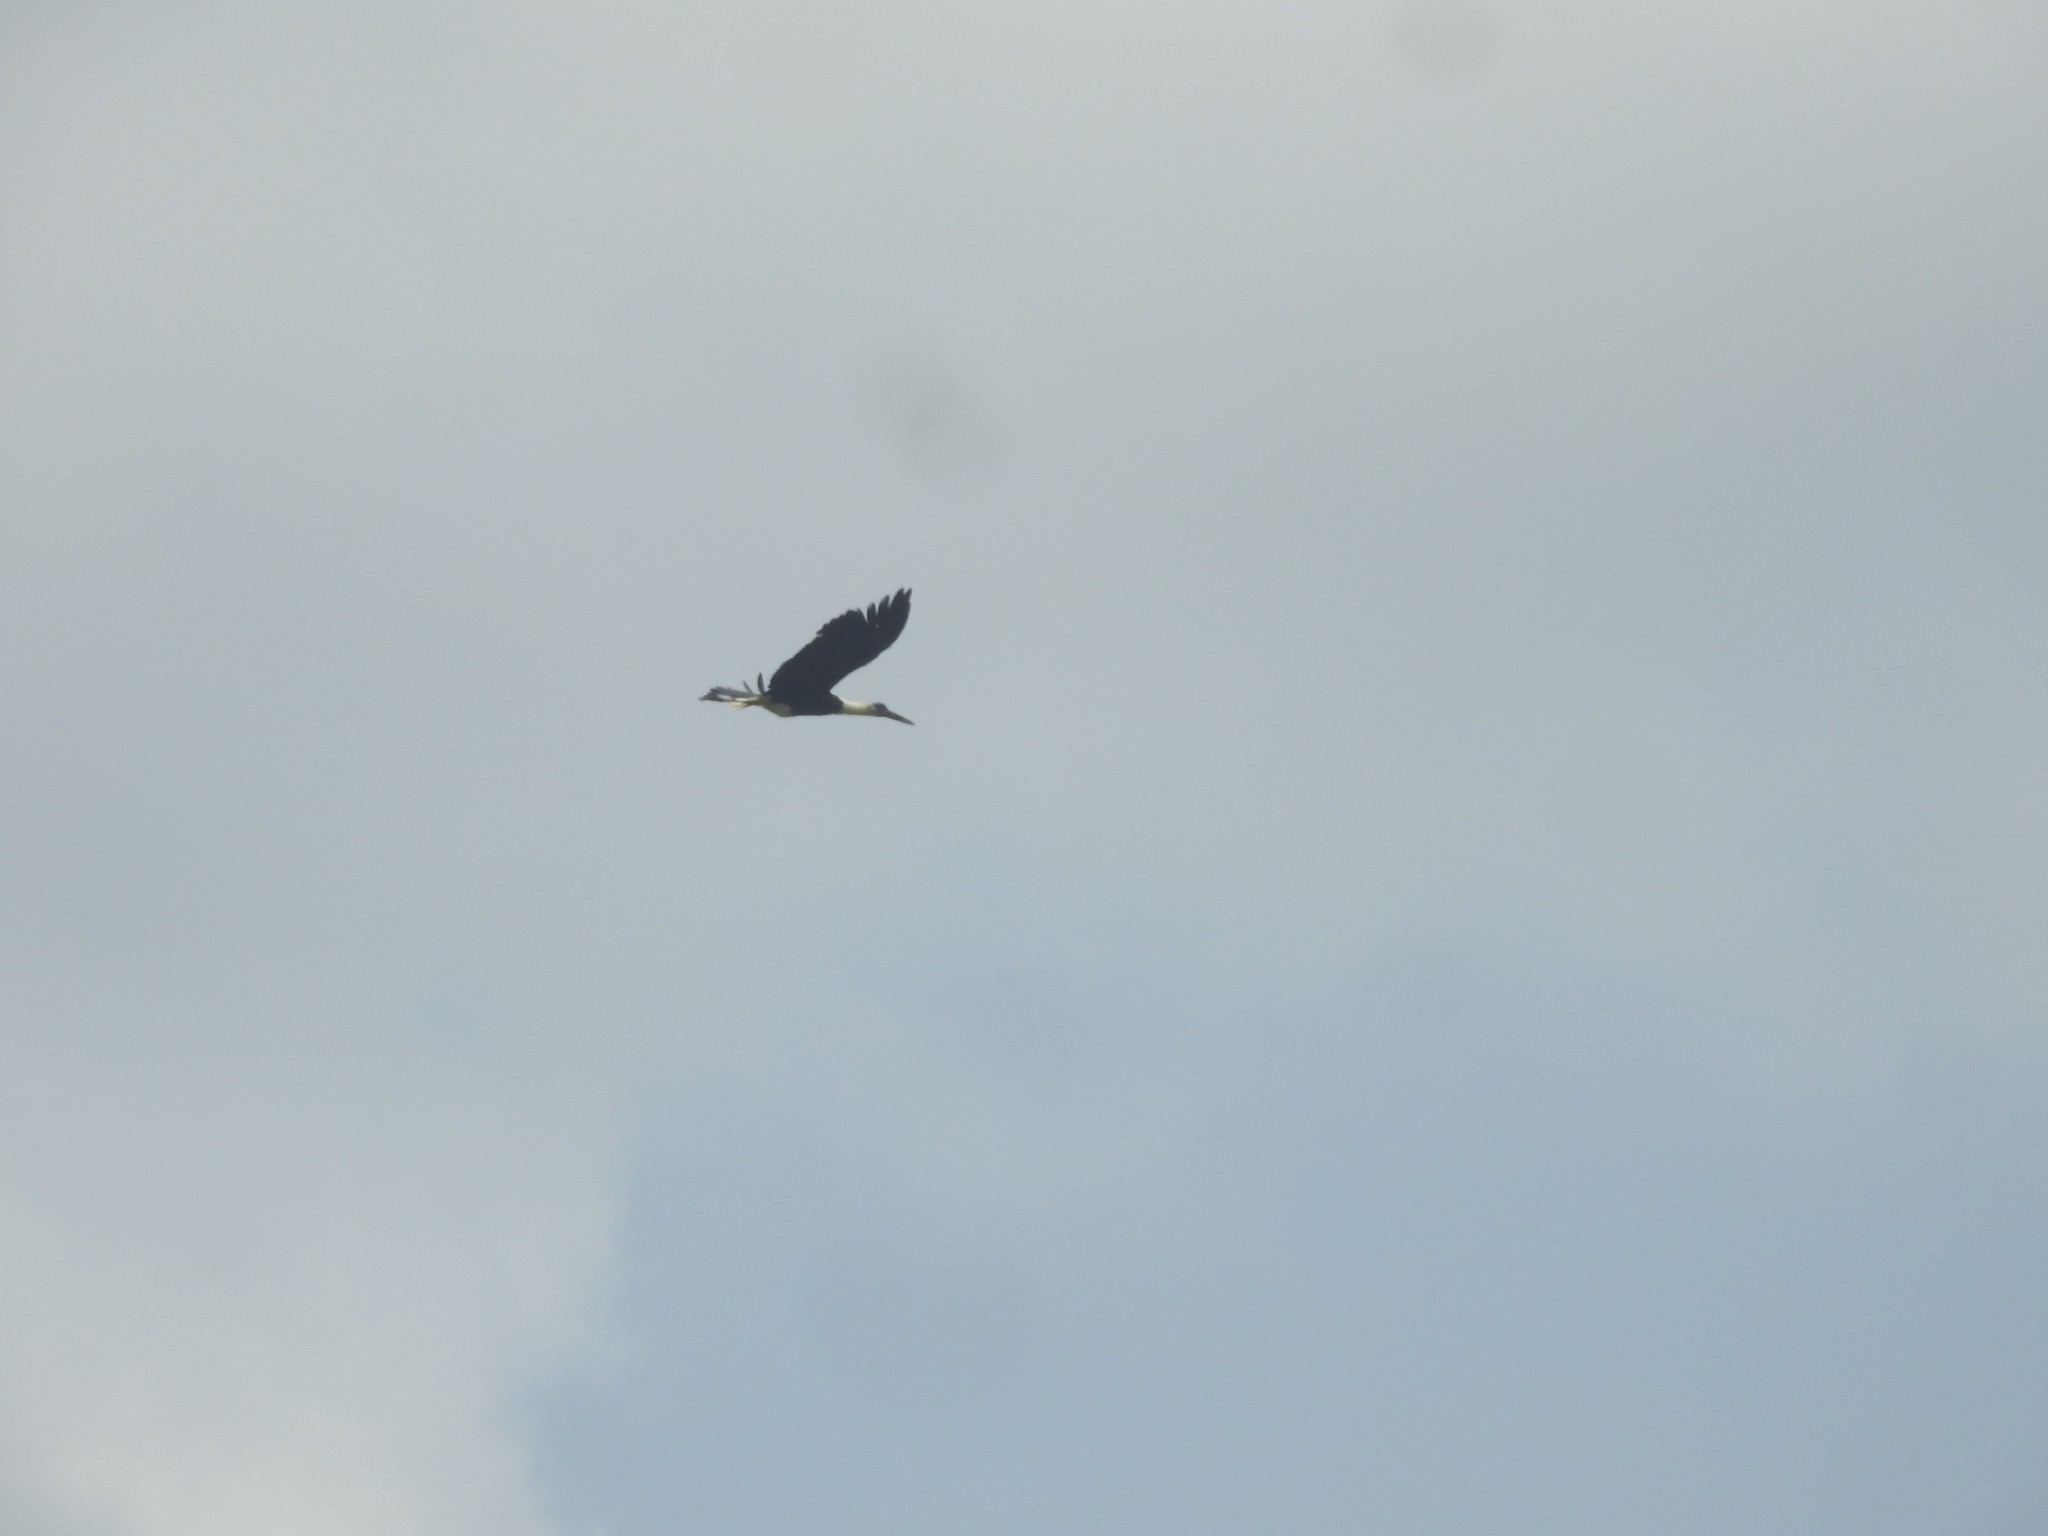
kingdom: Animalia
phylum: Chordata
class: Aves
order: Ciconiiformes
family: Ciconiidae
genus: Ciconia
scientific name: Ciconia episcopus
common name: Woolly-necked stork
